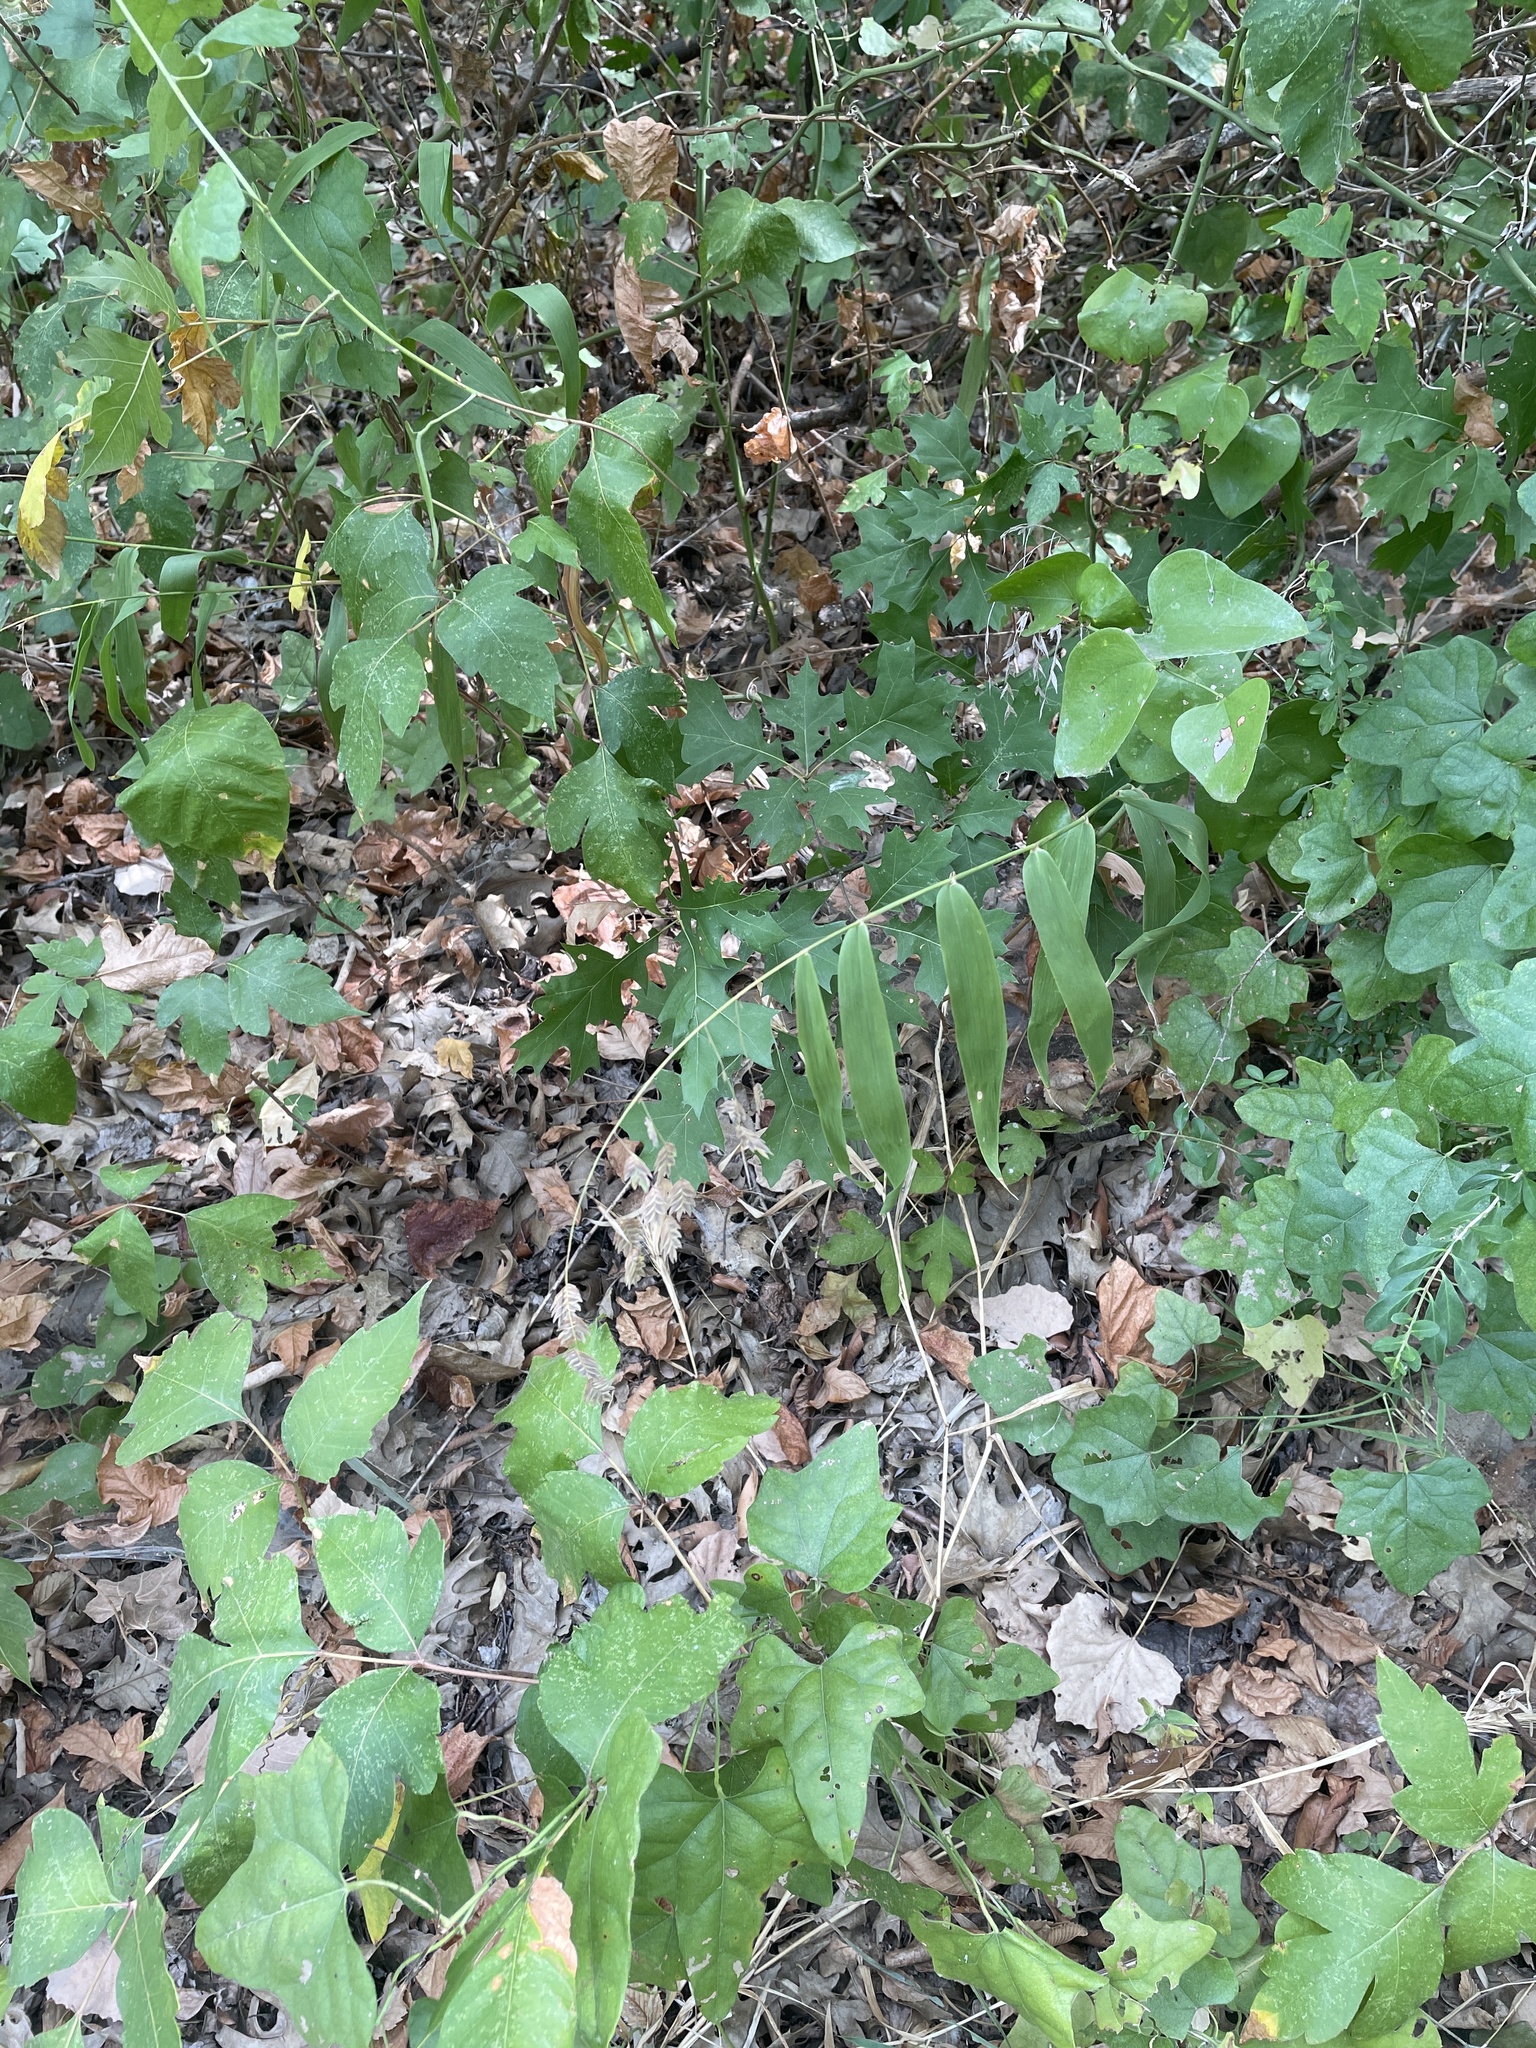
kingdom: Plantae
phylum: Tracheophyta
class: Liliopsida
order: Poales
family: Poaceae
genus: Chasmanthium
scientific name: Chasmanthium latifolium
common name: Broad-leaved chasmanthium
